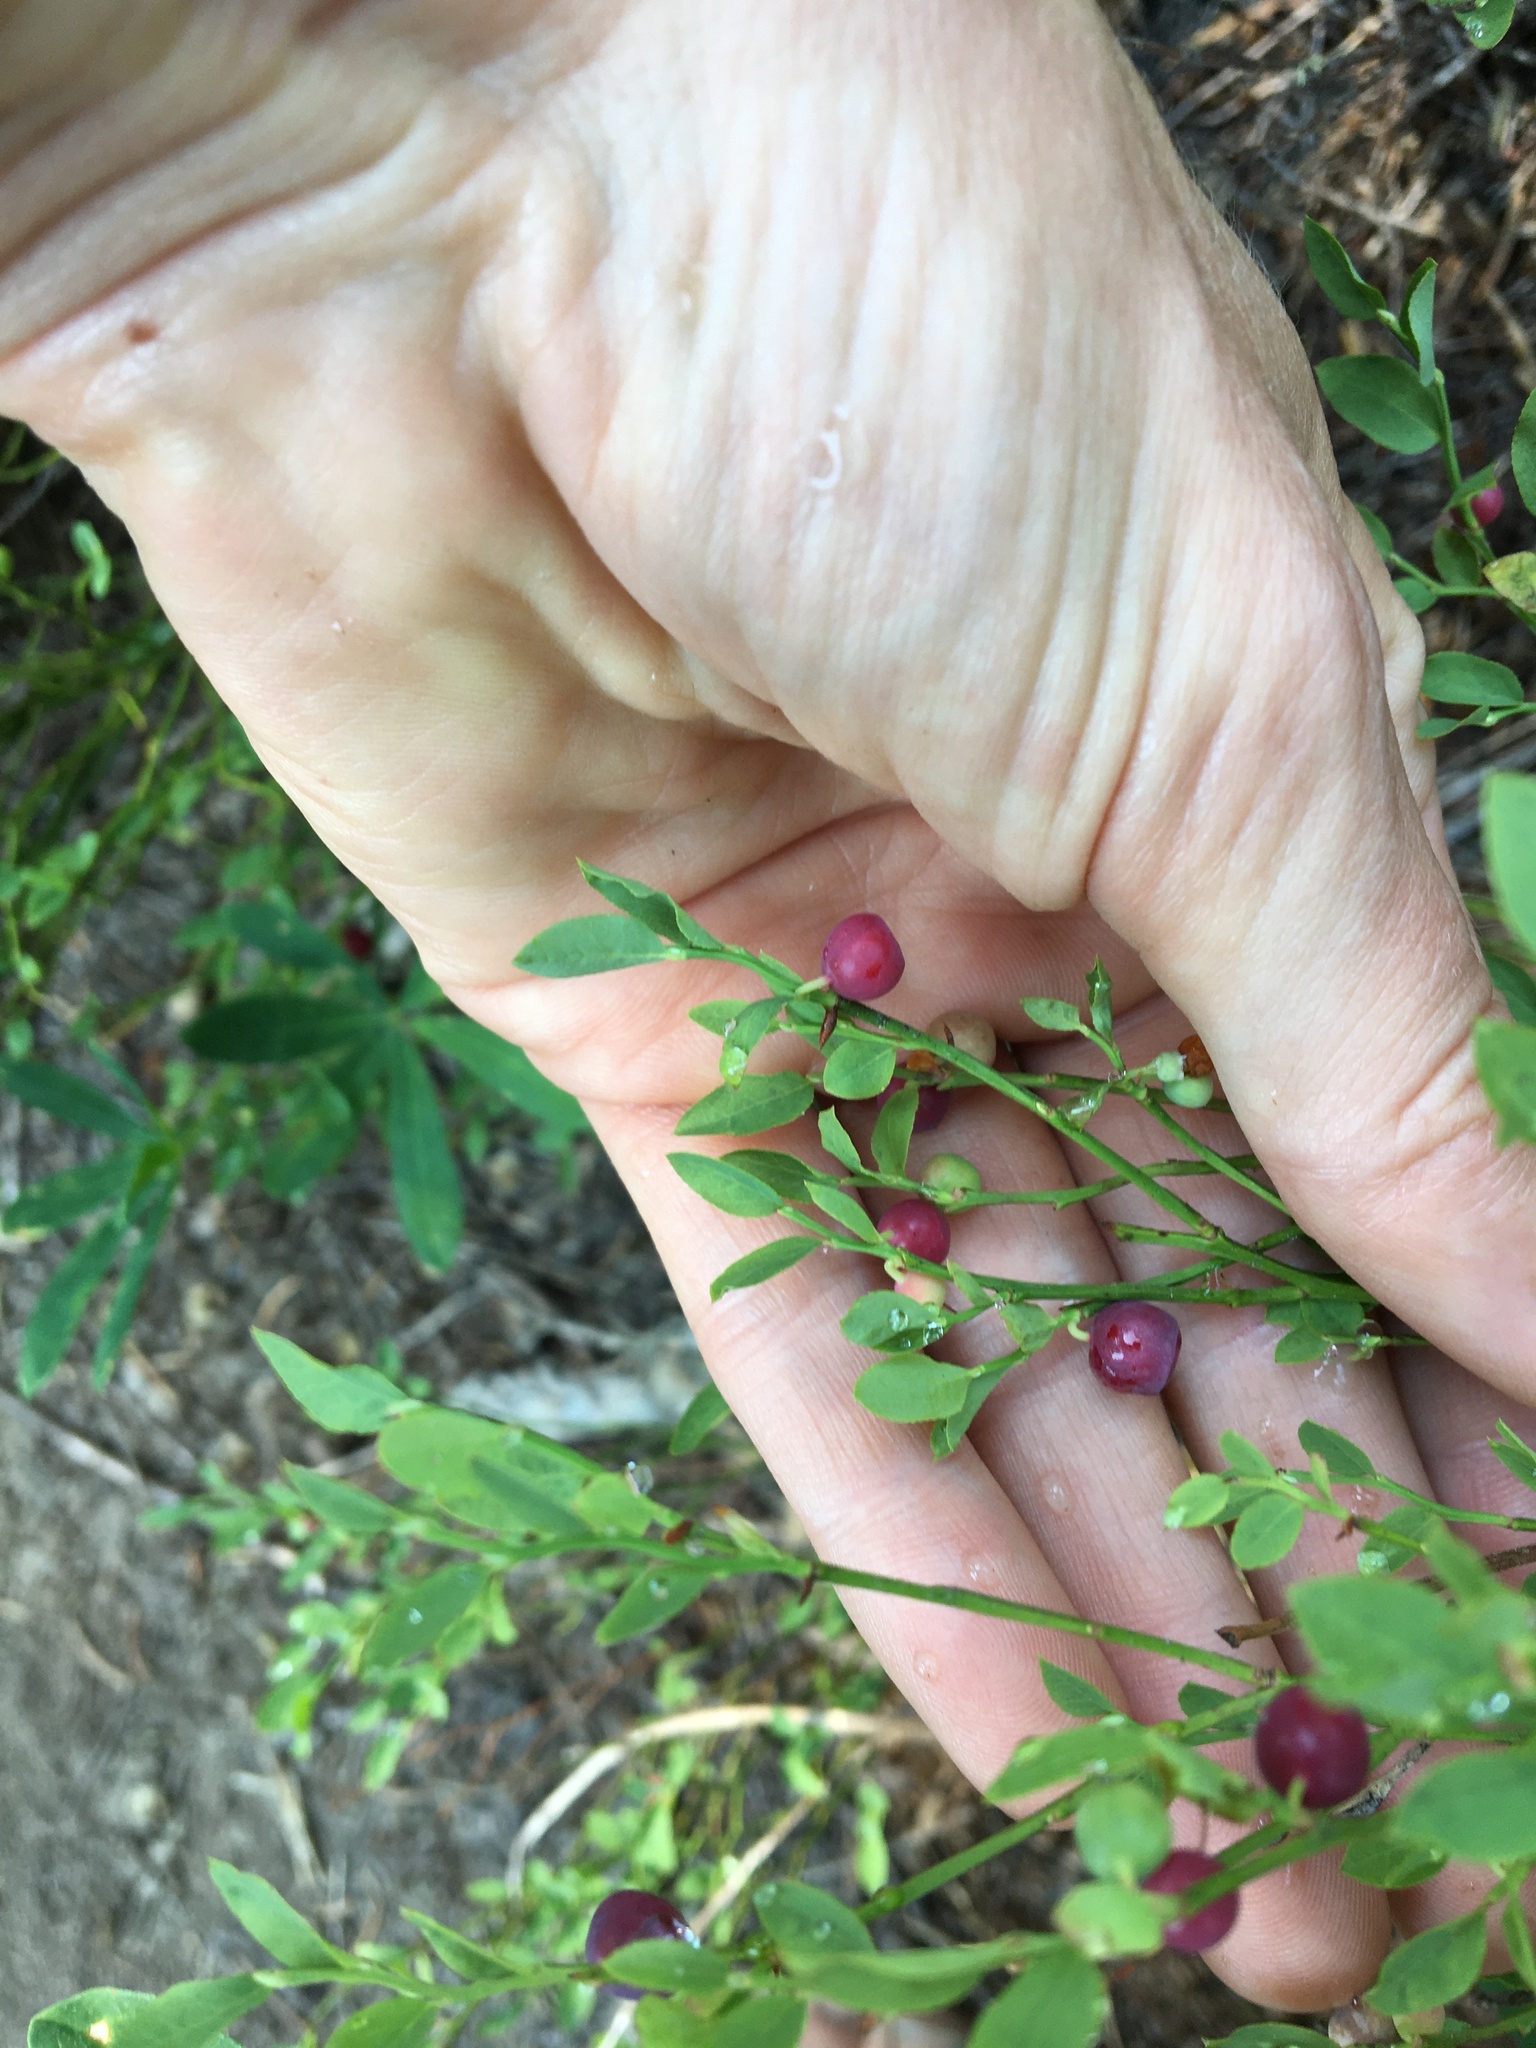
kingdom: Plantae
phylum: Tracheophyta
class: Magnoliopsida
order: Ericales
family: Ericaceae
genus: Vaccinium
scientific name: Vaccinium scoparium
